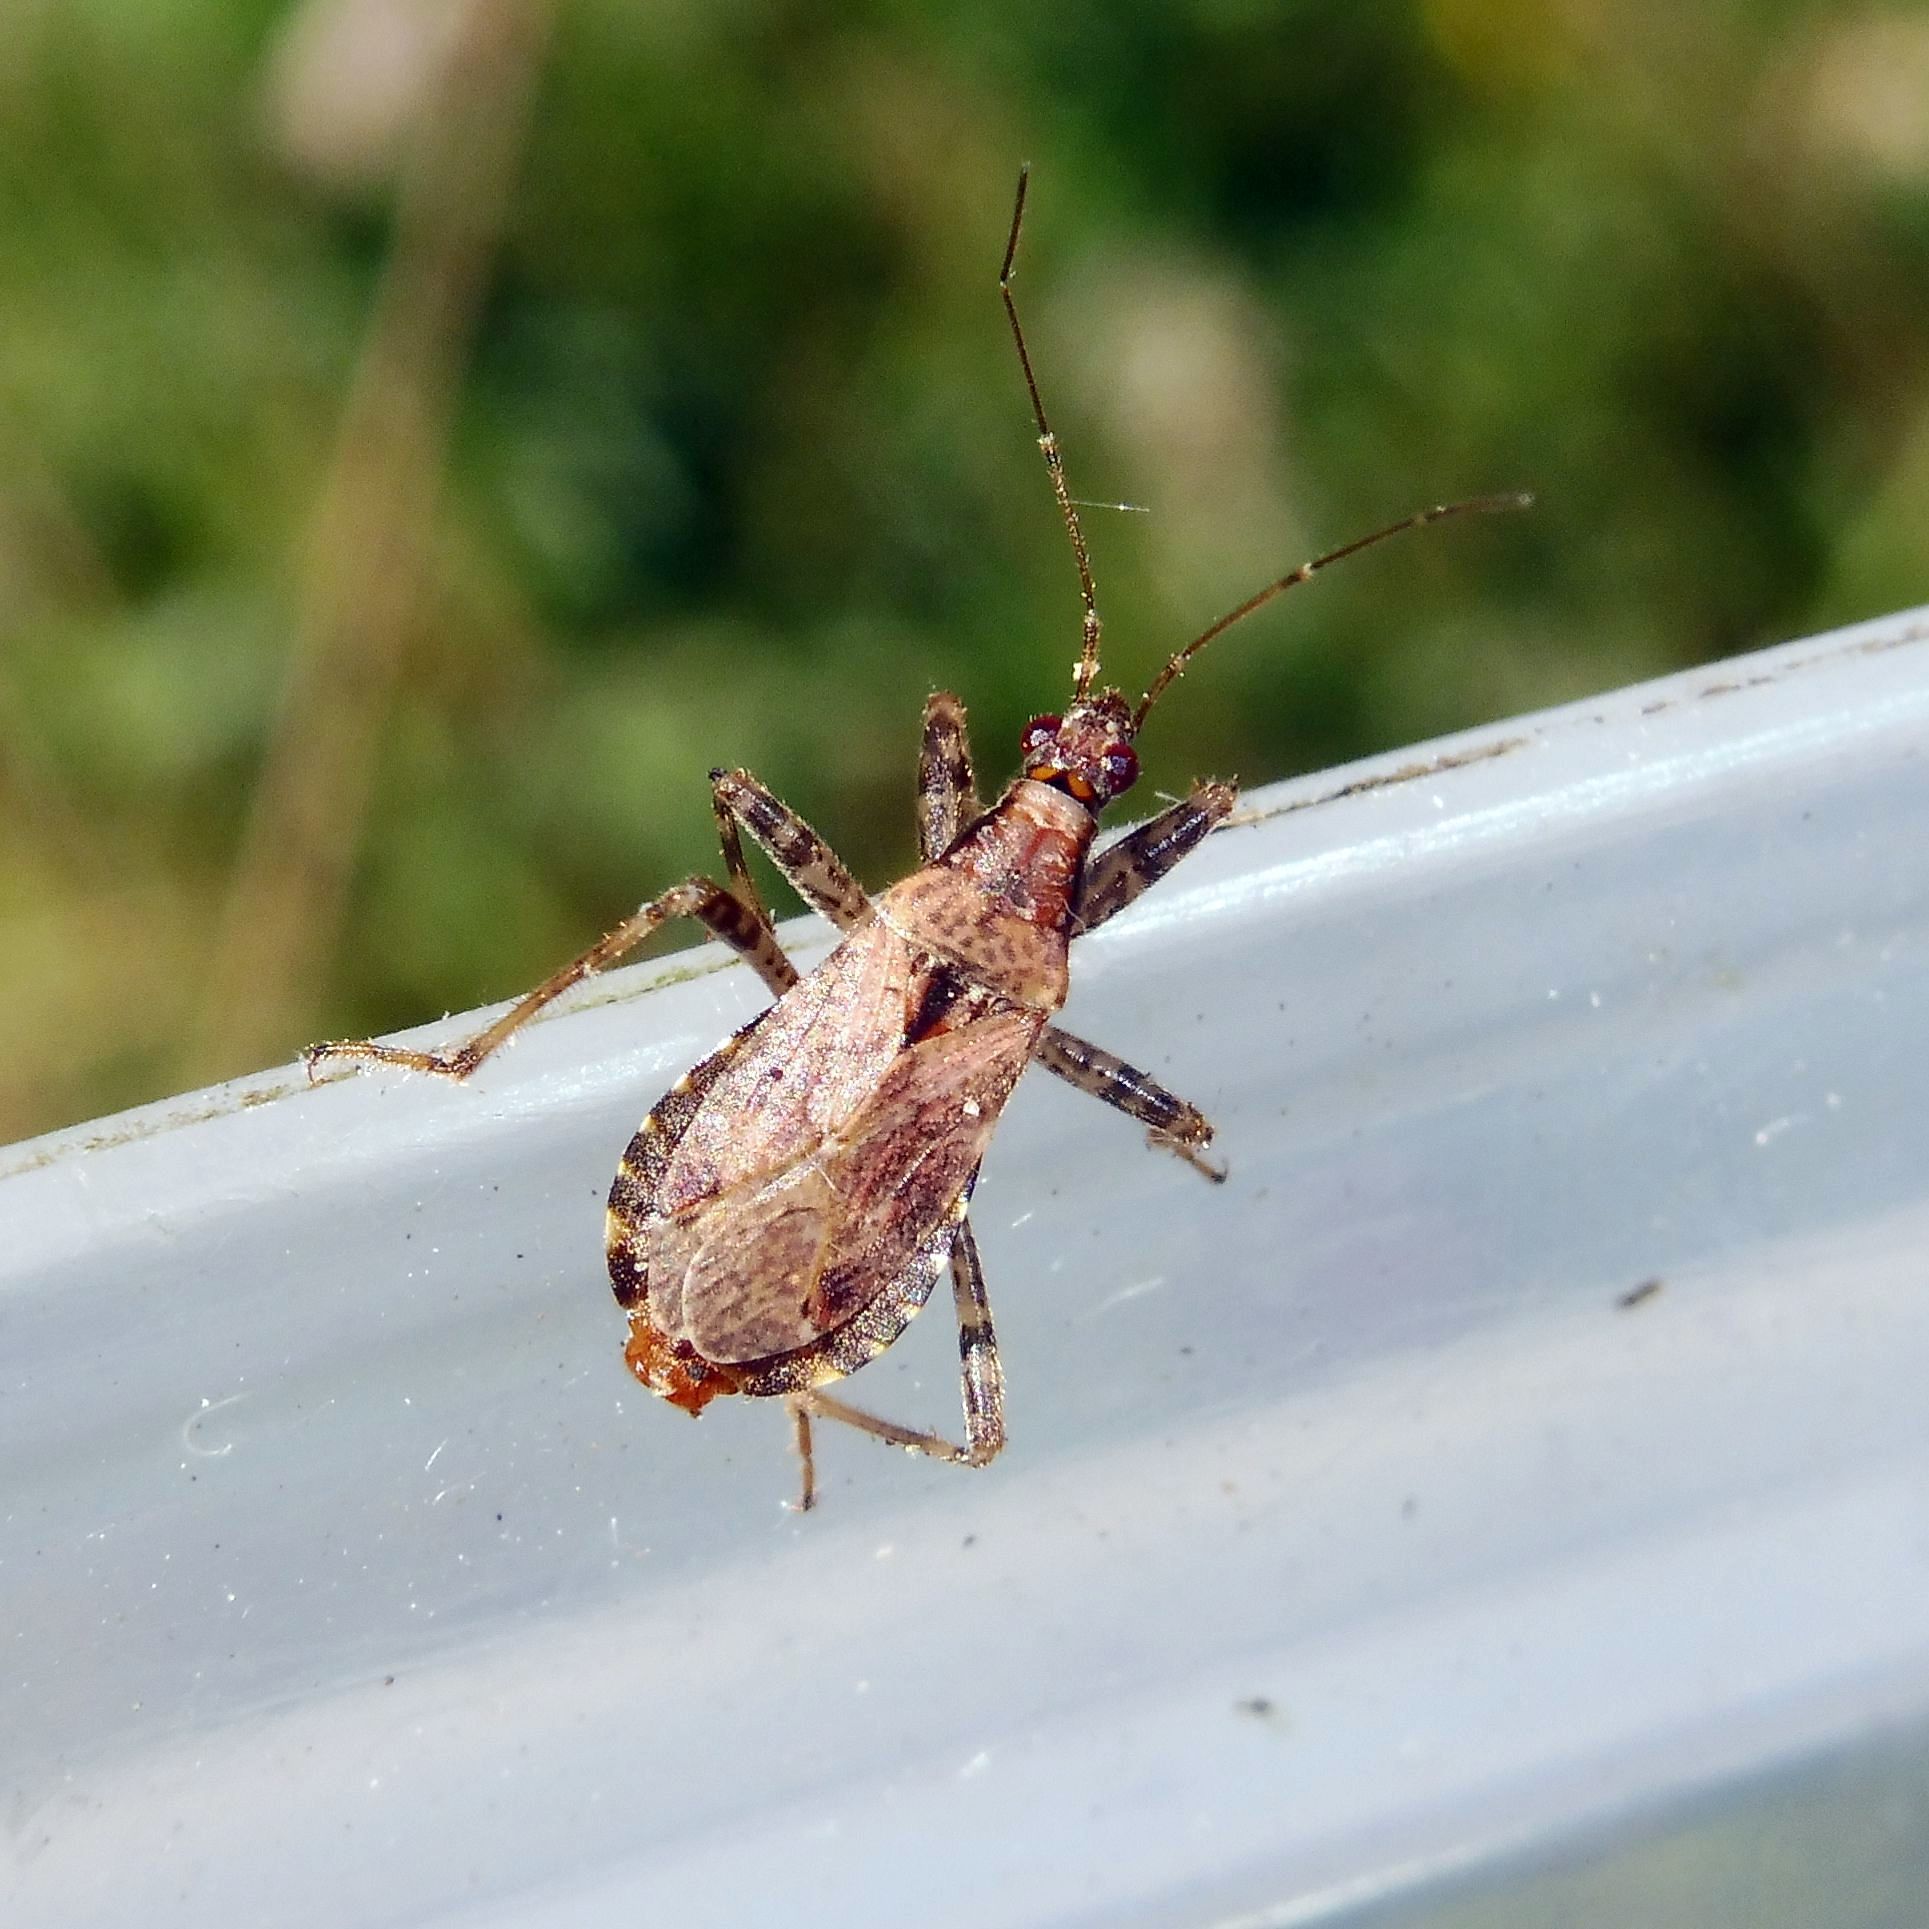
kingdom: Animalia
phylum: Arthropoda
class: Insecta
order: Hemiptera
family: Nabidae
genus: Himacerus
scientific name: Himacerus mirmicoides
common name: Ant damsel bug
